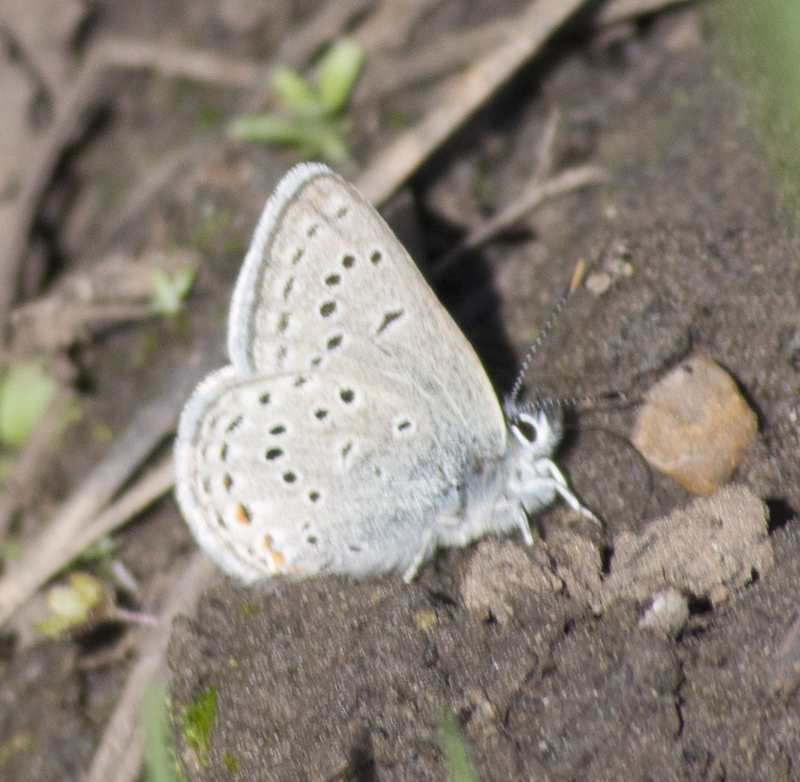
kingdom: Animalia
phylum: Arthropoda
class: Insecta
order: Lepidoptera
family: Lycaenidae
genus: Icaricia
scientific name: Icaricia saepiolus
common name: Greenish blue
